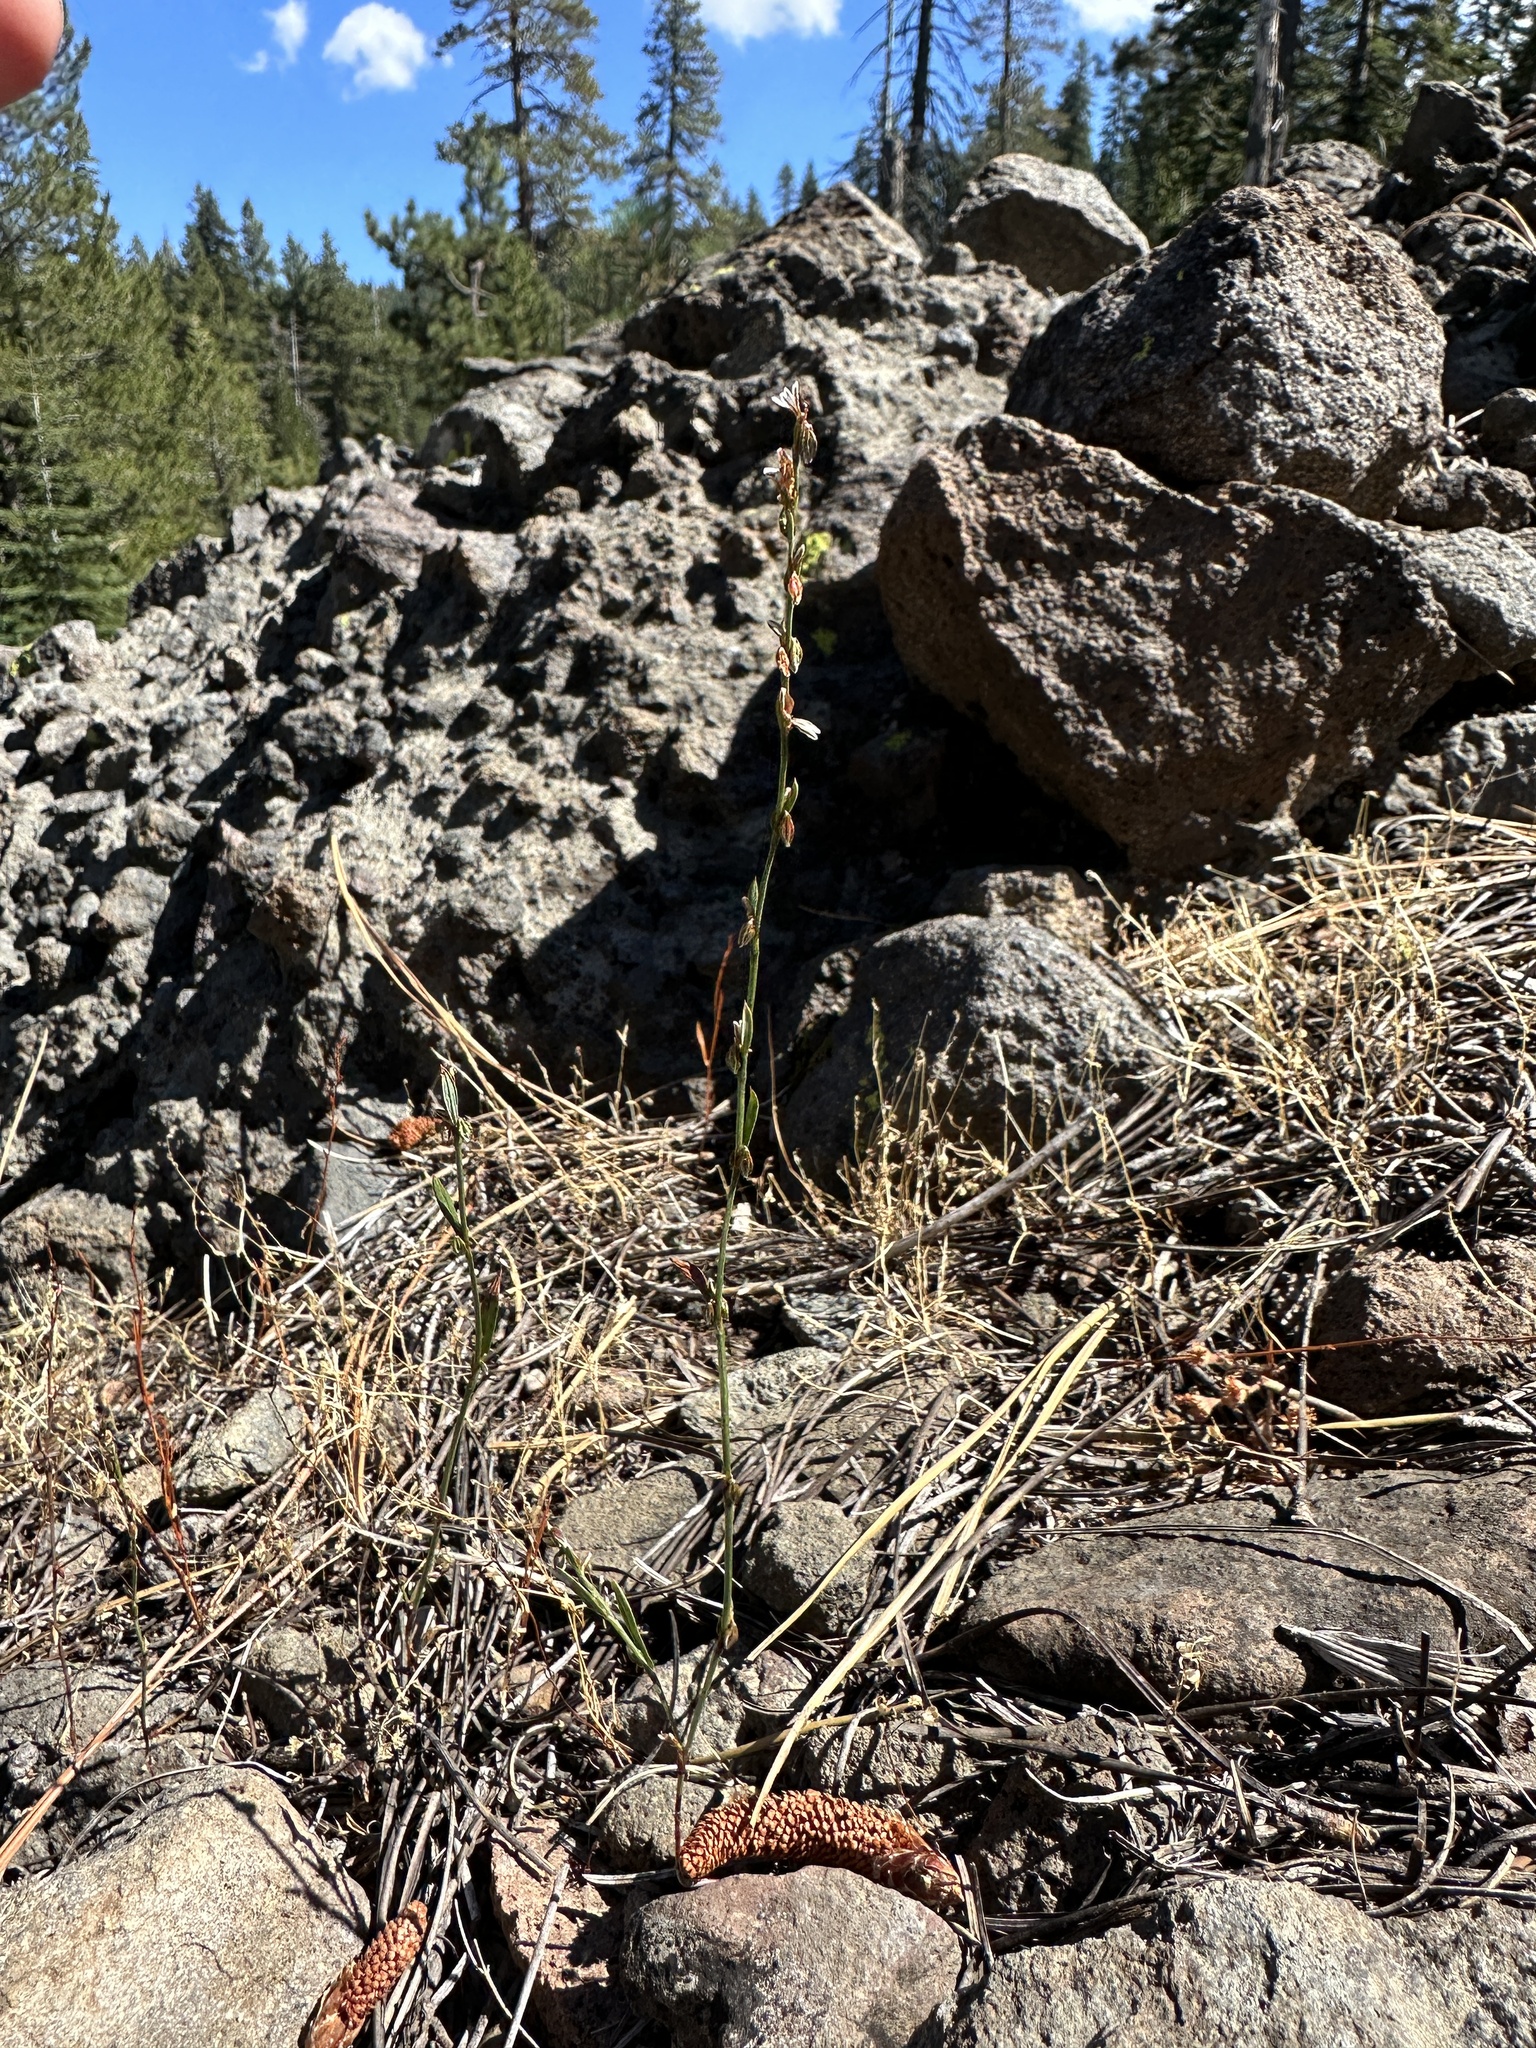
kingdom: Plantae
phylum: Tracheophyta
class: Magnoliopsida
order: Caryophyllales
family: Polygonaceae
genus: Polygonum
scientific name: Polygonum douglasii
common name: Douglas' knotweed
